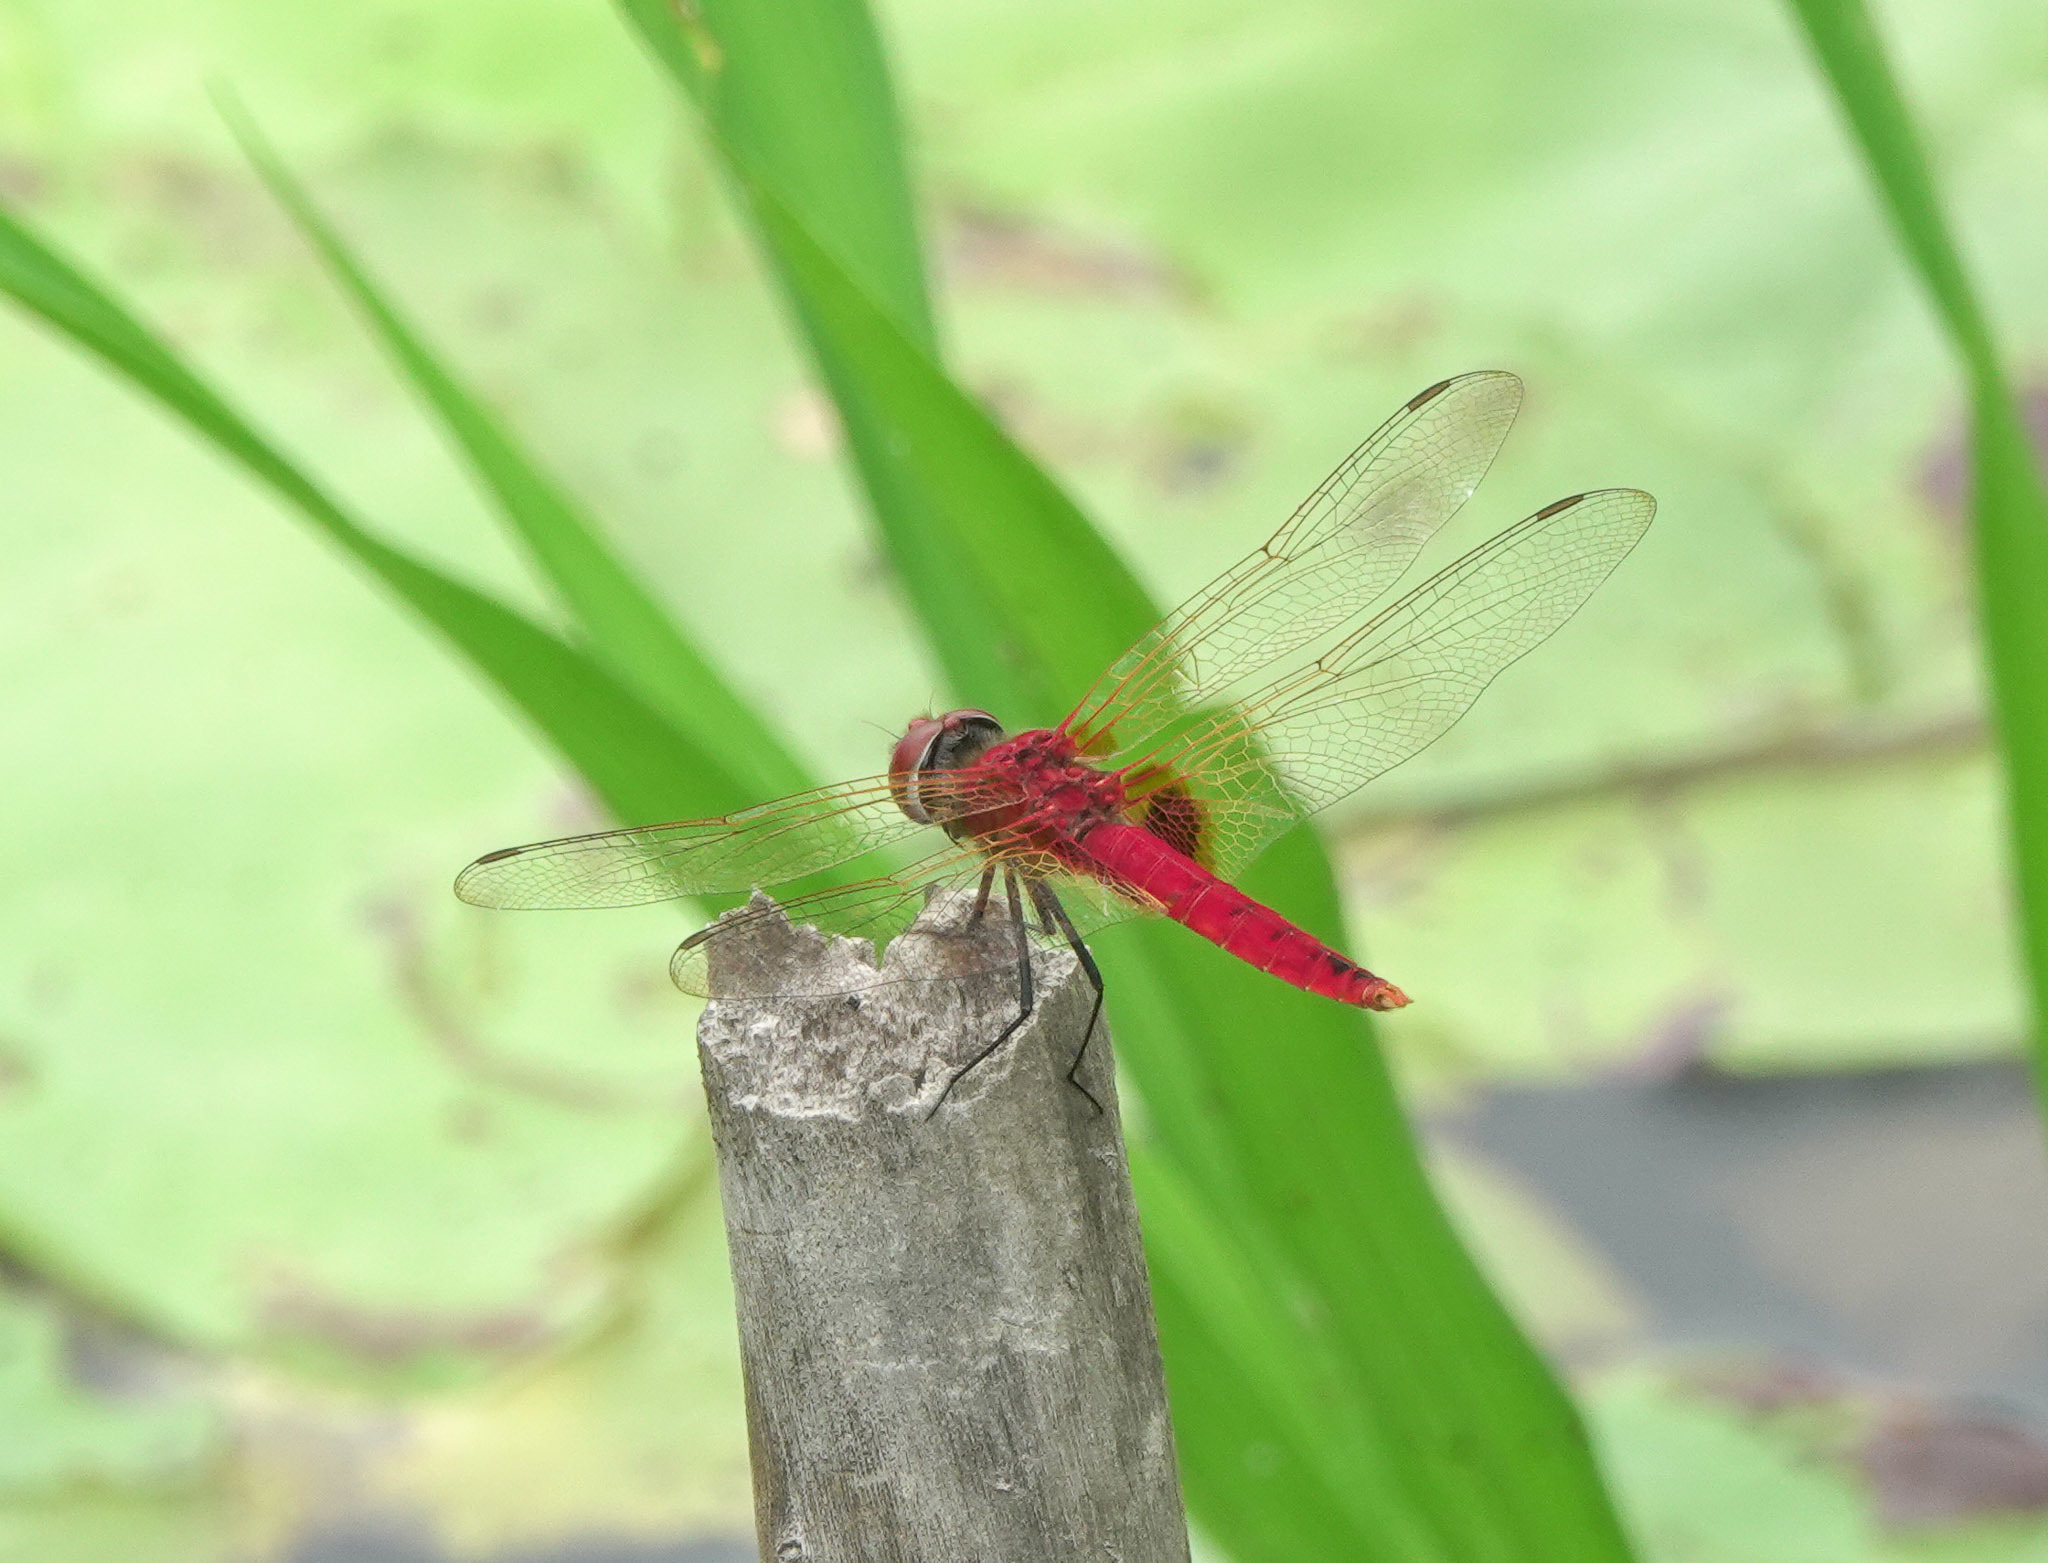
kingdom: Animalia
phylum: Arthropoda
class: Insecta
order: Odonata
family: Libellulidae
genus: Urothemis
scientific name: Urothemis signata
